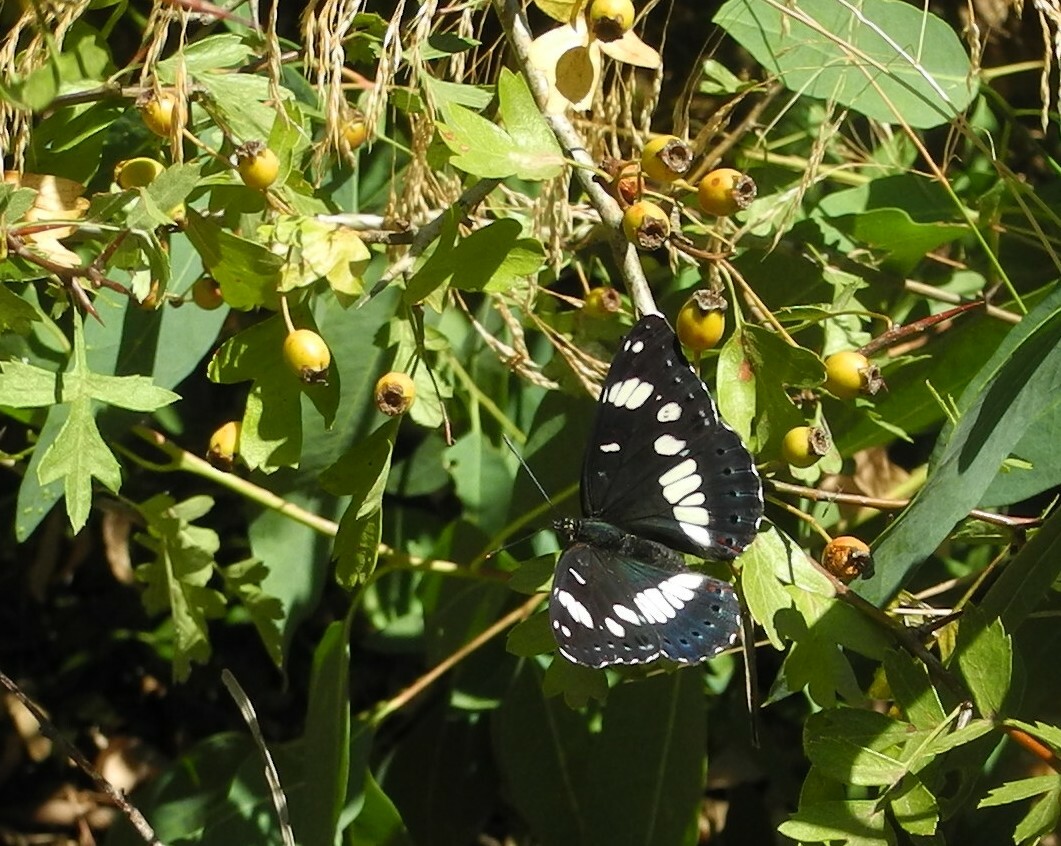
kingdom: Animalia
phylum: Arthropoda
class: Insecta
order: Lepidoptera
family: Nymphalidae
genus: Limenitis
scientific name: Limenitis reducta
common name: Southern white admiral
